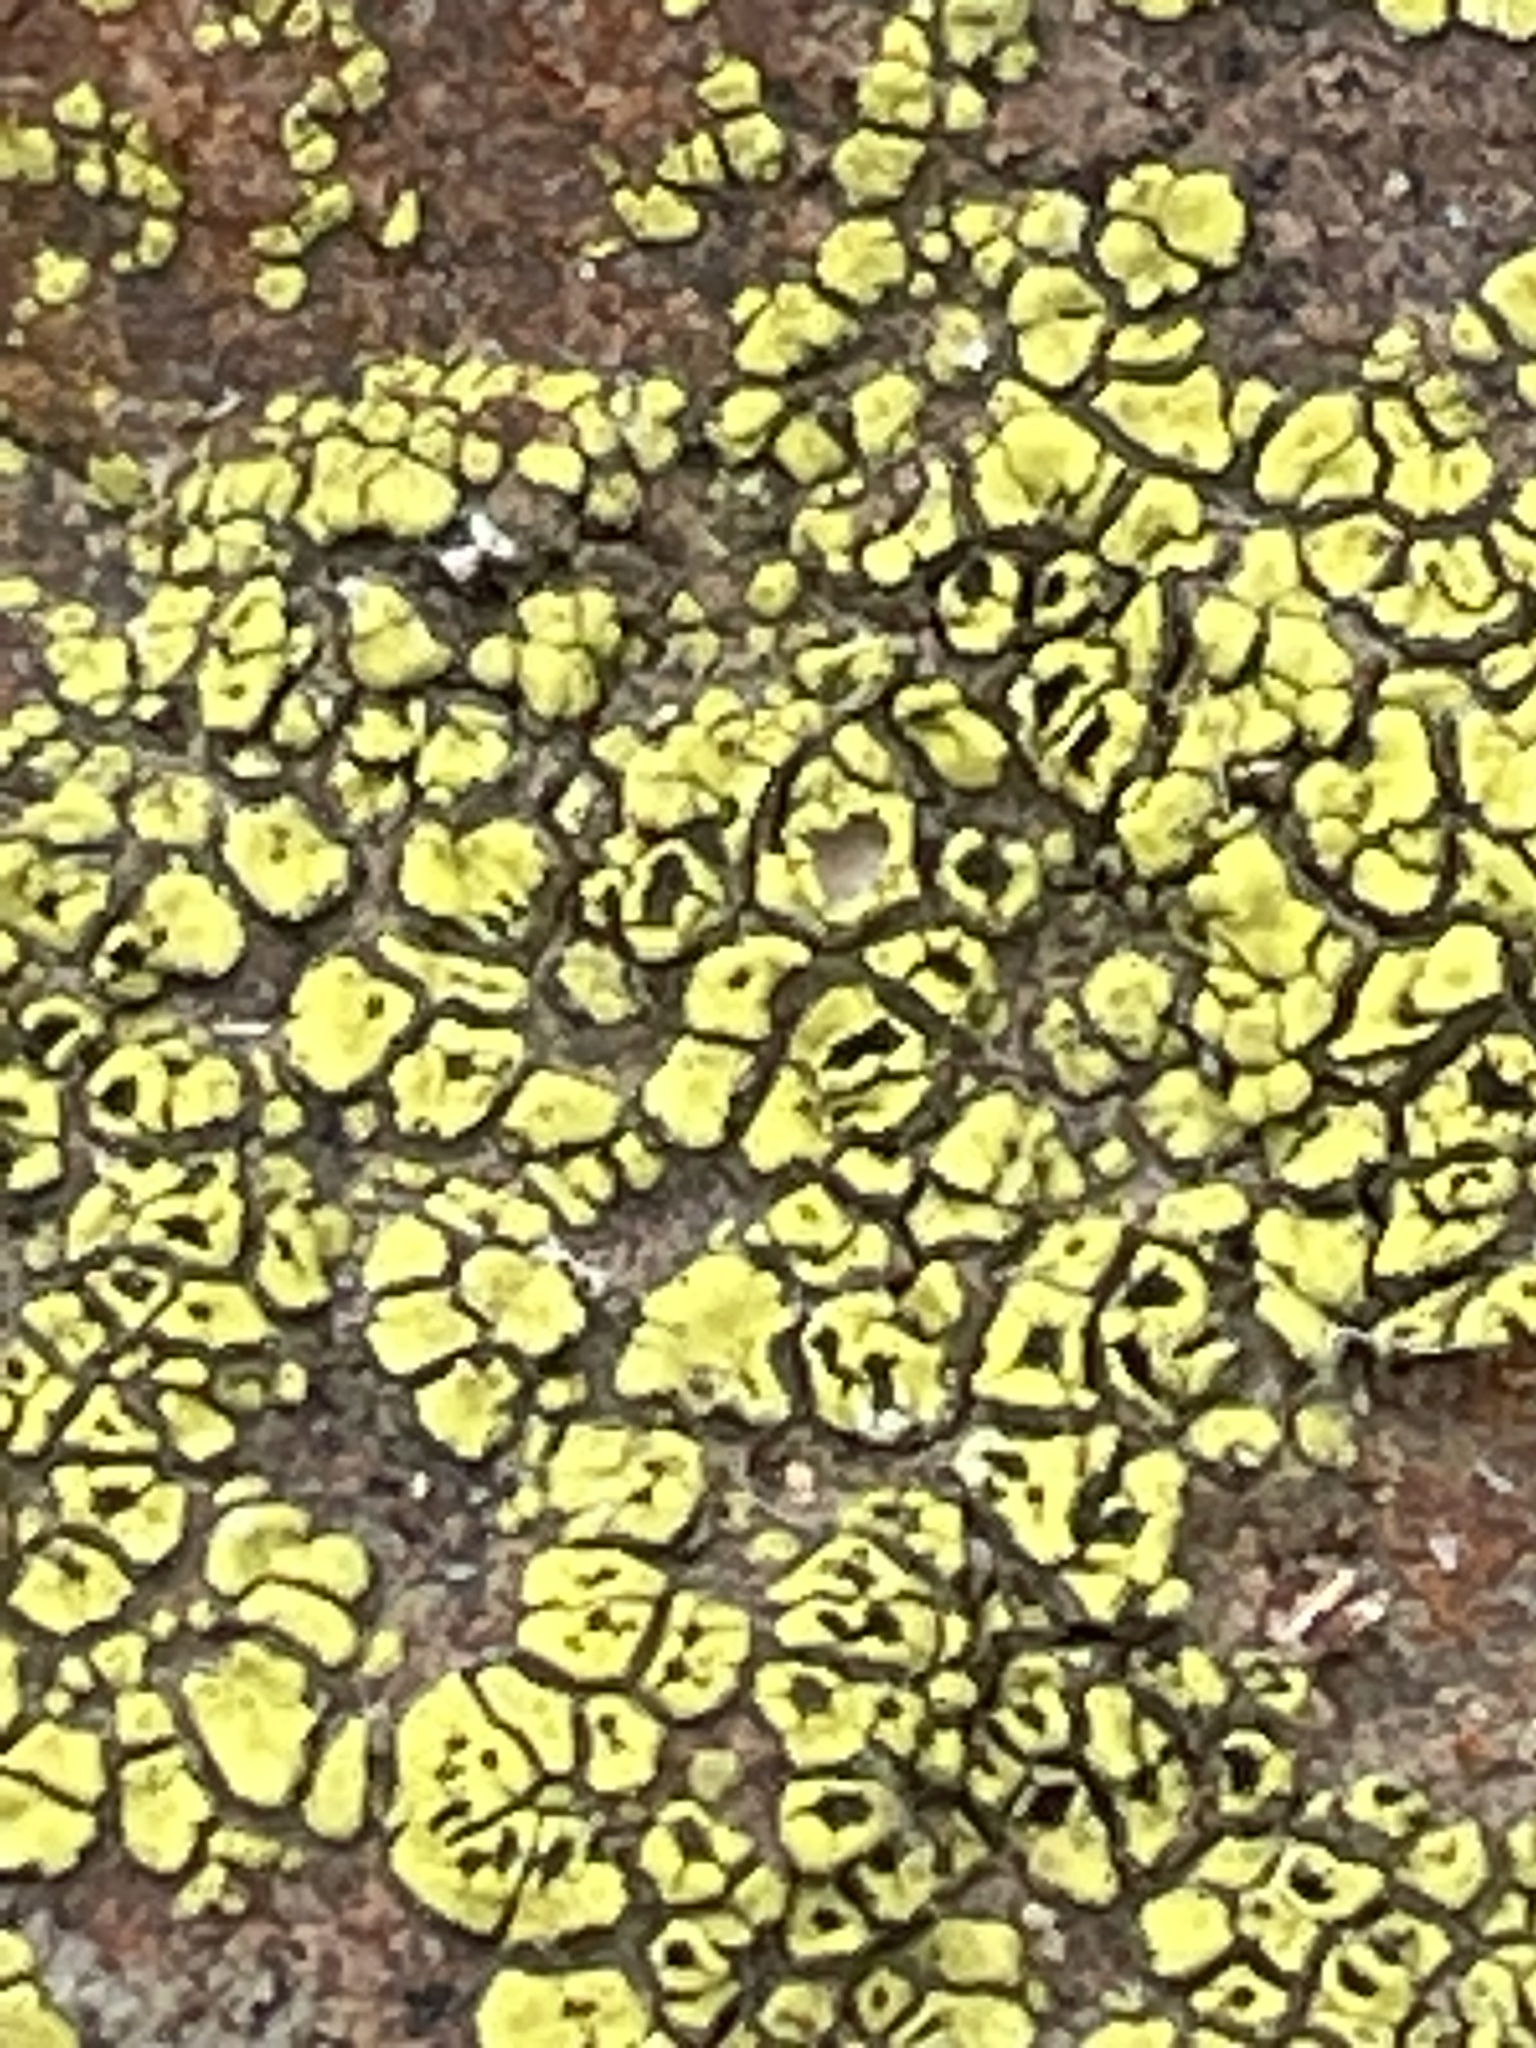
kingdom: Fungi
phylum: Ascomycota
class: Lecanoromycetes
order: Acarosporales
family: Acarosporaceae
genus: Acarospora
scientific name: Acarospora socialis
